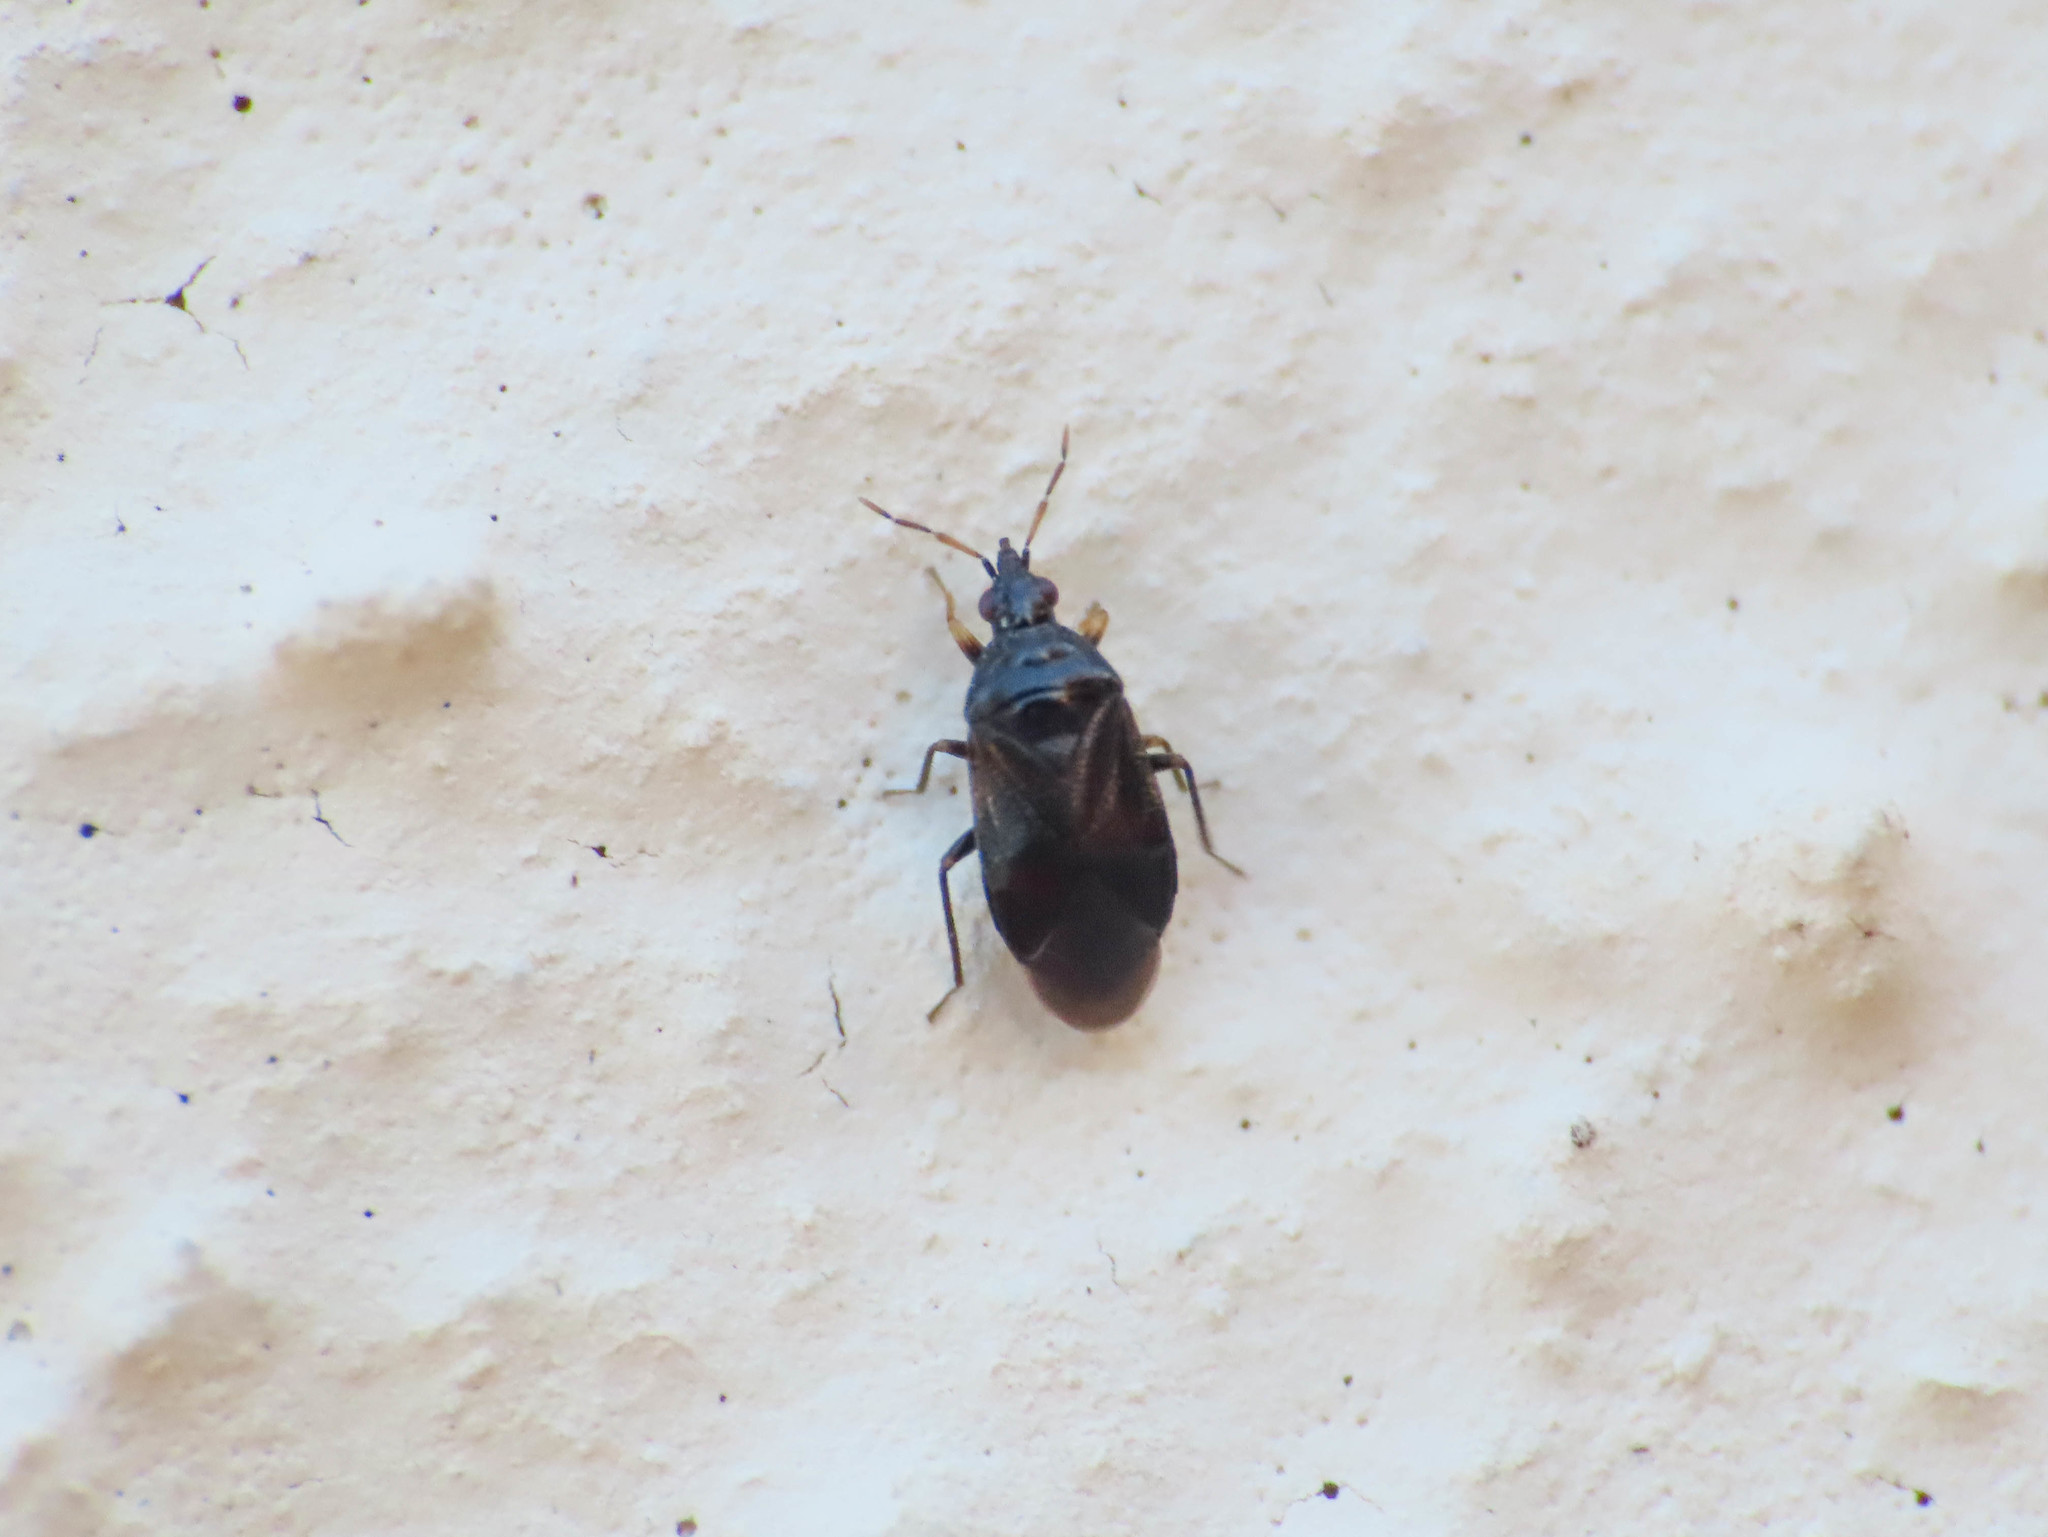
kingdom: Animalia
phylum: Arthropoda
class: Insecta
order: Hemiptera
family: Anthocoridae
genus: Cardiastethus
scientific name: Cardiastethus nazarenus
